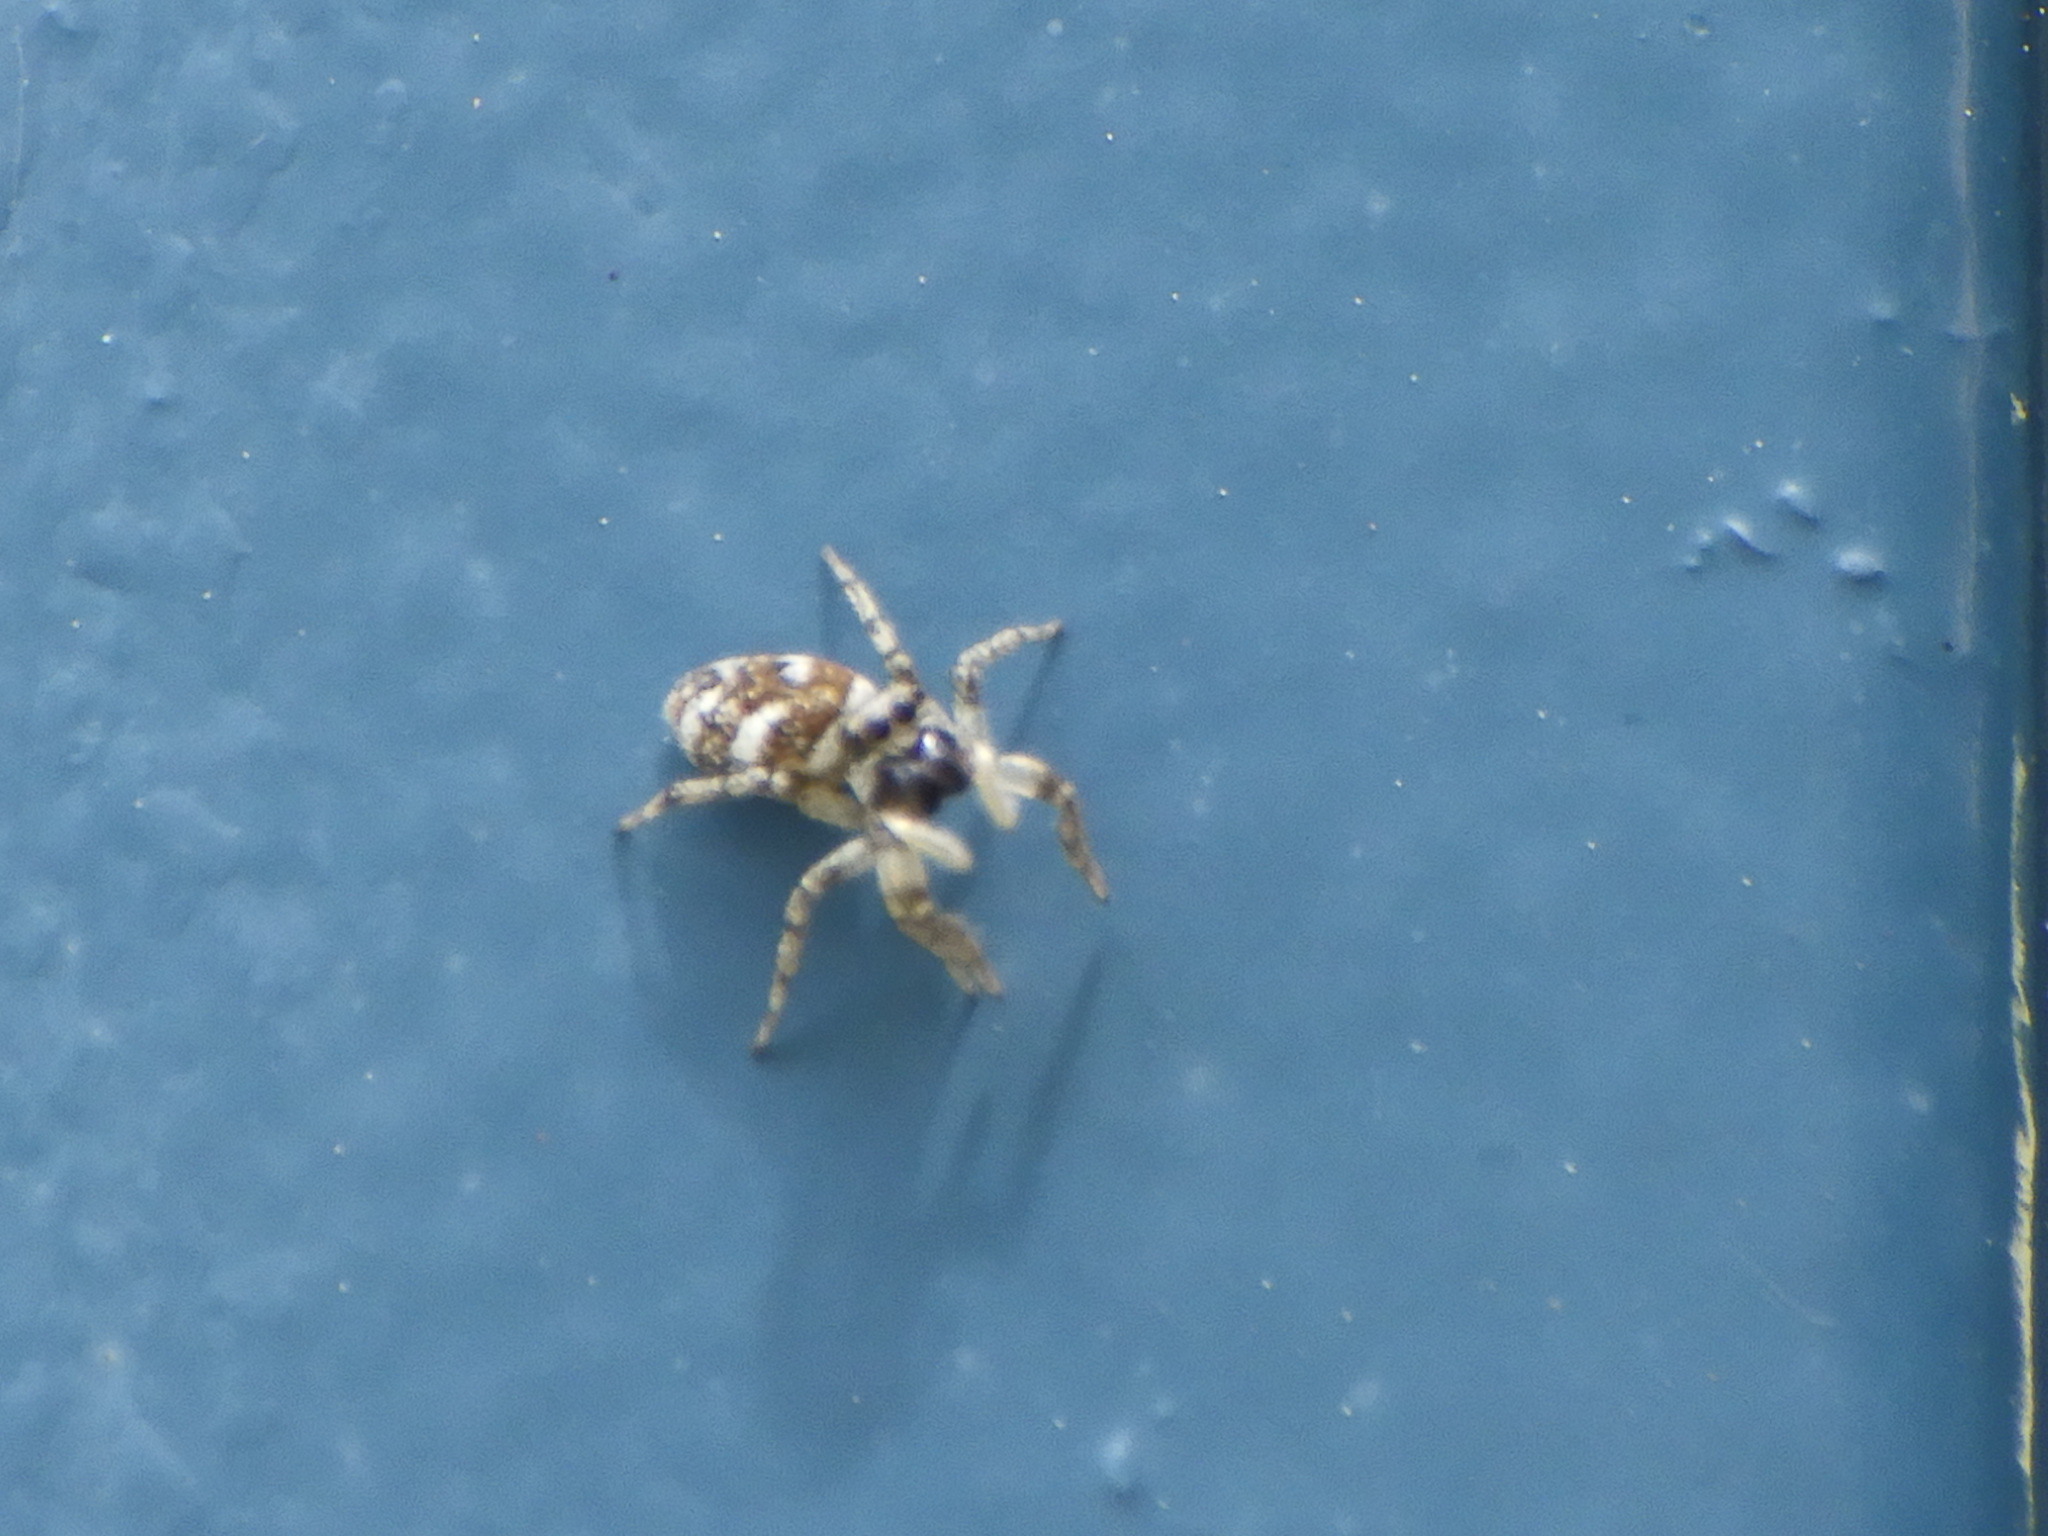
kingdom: Animalia
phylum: Arthropoda
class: Arachnida
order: Araneae
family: Salticidae
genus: Salticus
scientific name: Salticus scenicus
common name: Zebra jumper
